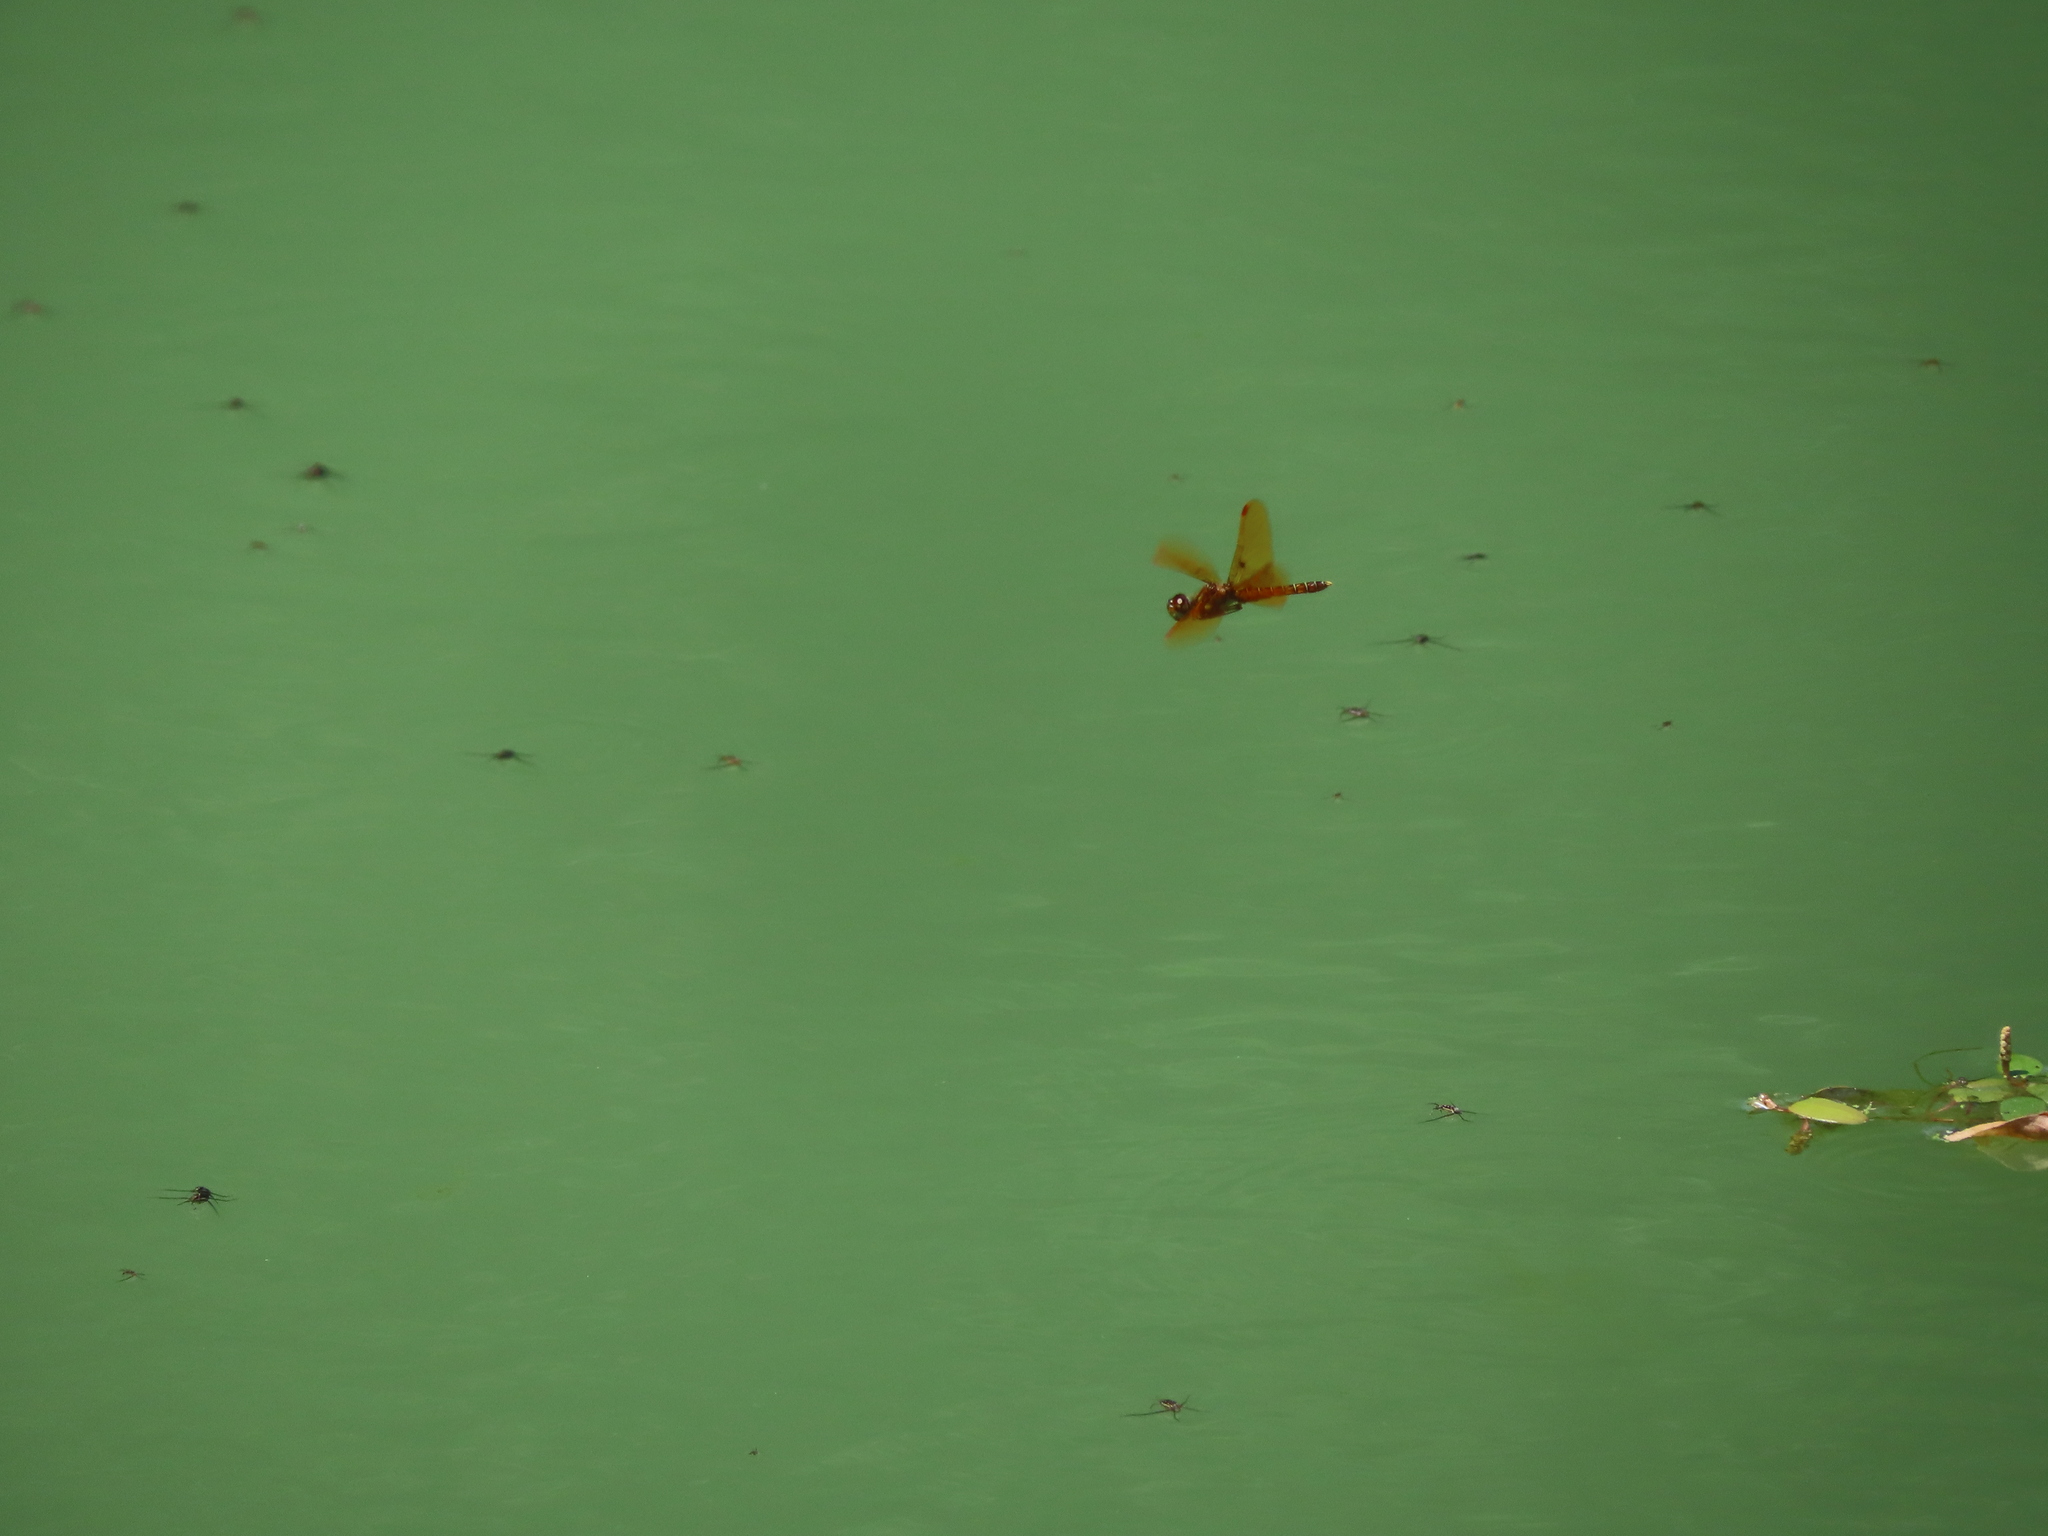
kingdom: Animalia
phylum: Arthropoda
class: Insecta
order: Odonata
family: Libellulidae
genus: Perithemis
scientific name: Perithemis tenera
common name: Eastern amberwing
